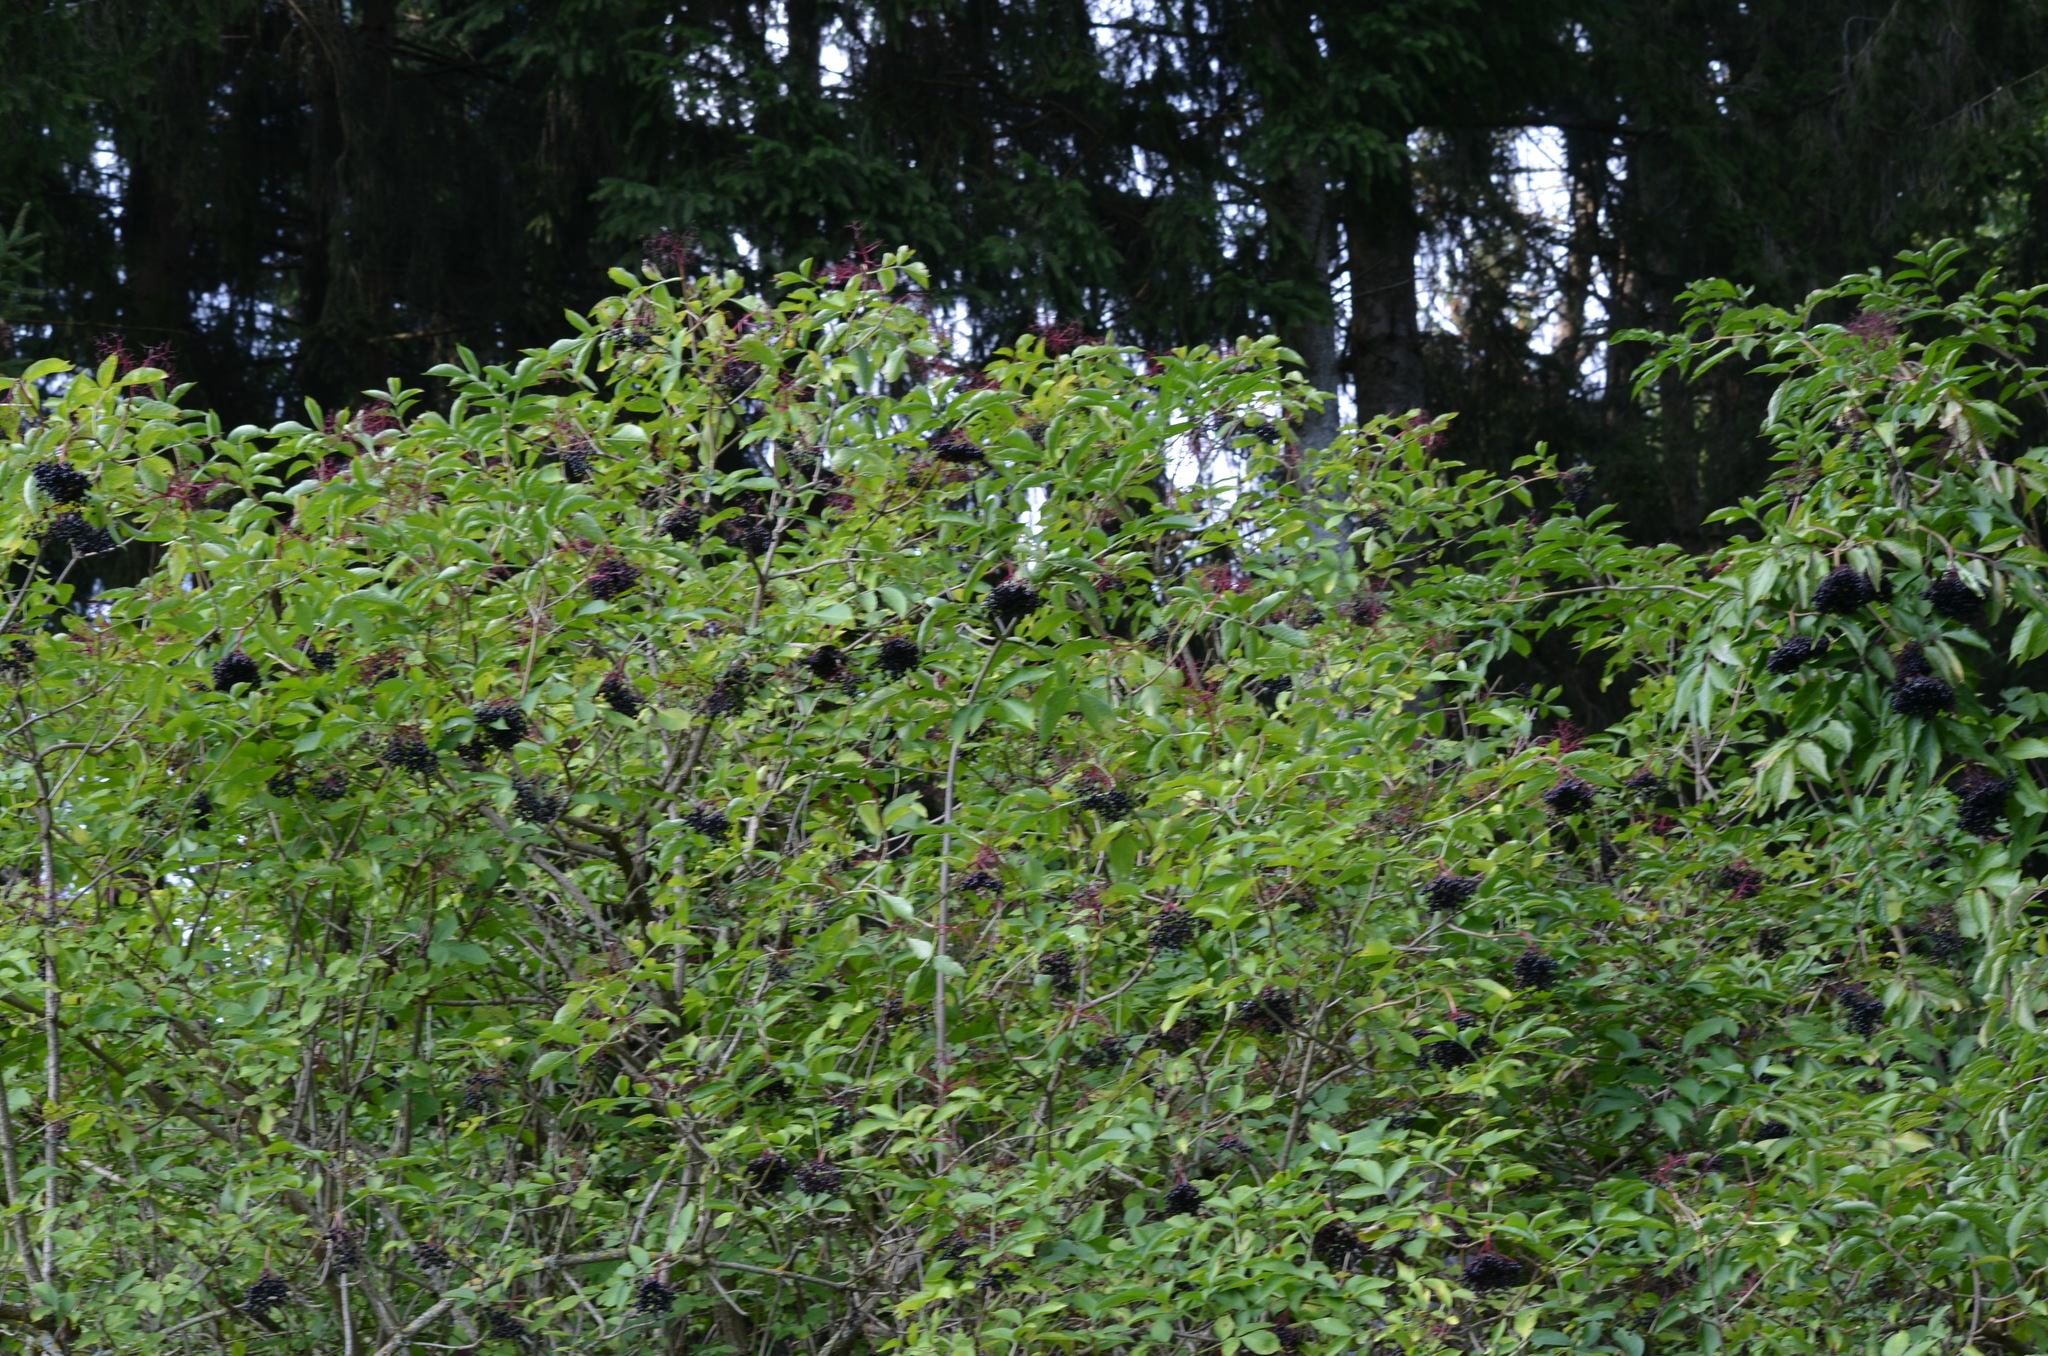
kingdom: Plantae
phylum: Tracheophyta
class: Magnoliopsida
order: Dipsacales
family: Viburnaceae
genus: Sambucus
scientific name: Sambucus nigra
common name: Elder
